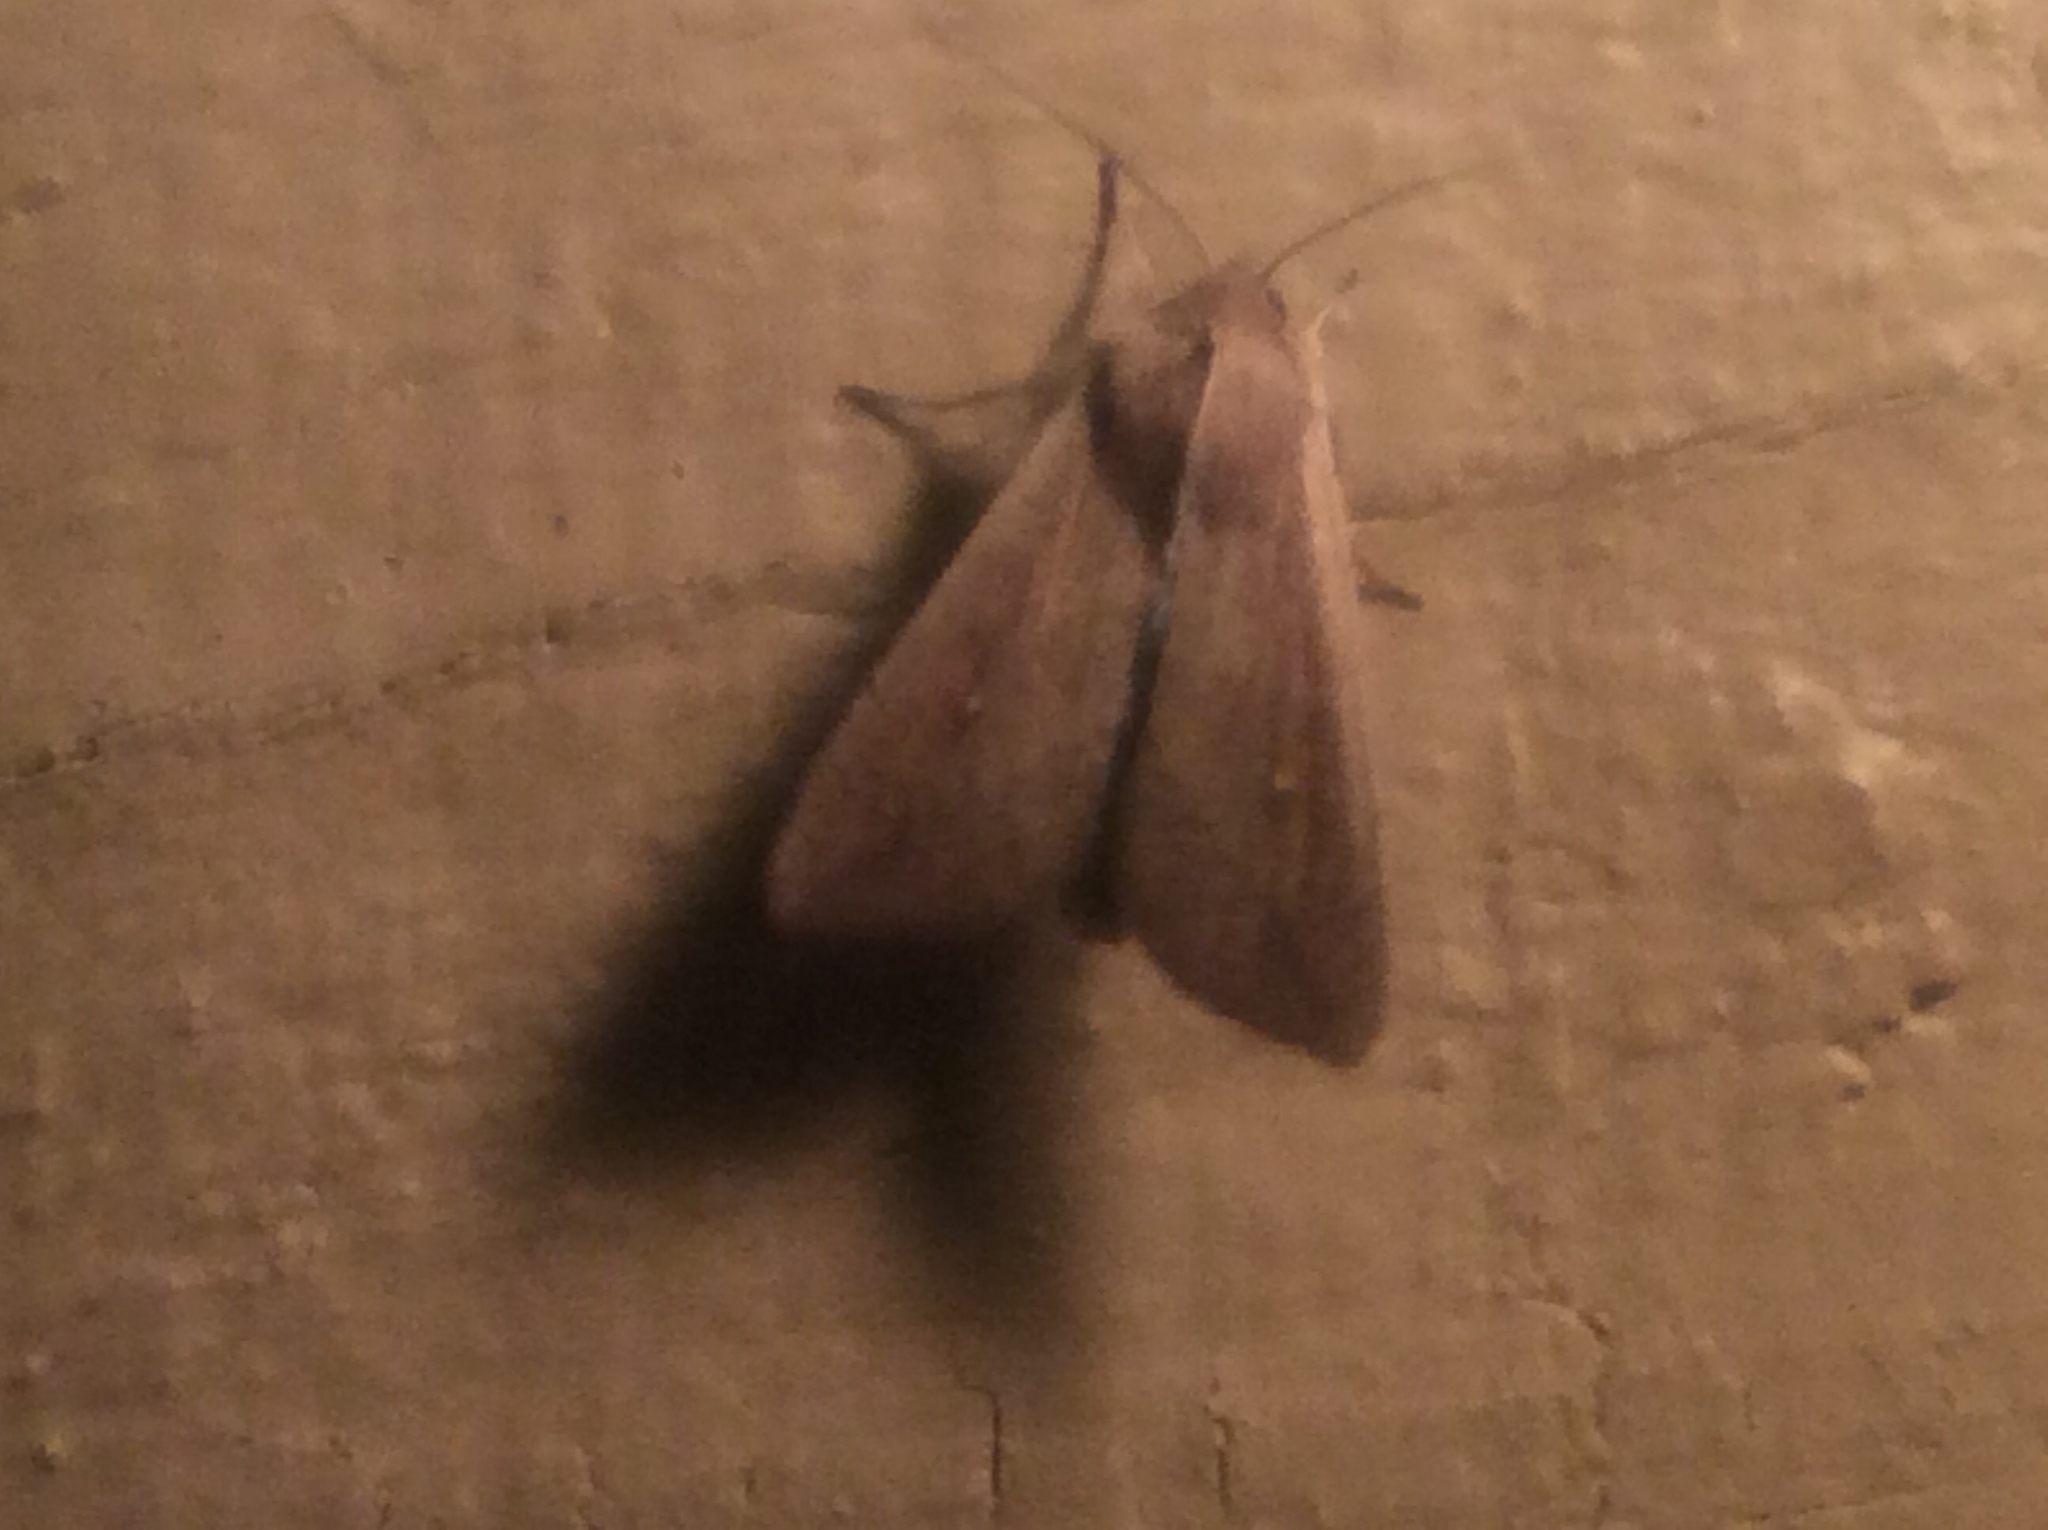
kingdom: Animalia
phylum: Arthropoda
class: Insecta
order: Lepidoptera
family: Noctuidae
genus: Mythimna
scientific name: Mythimna unipuncta
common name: White-speck
